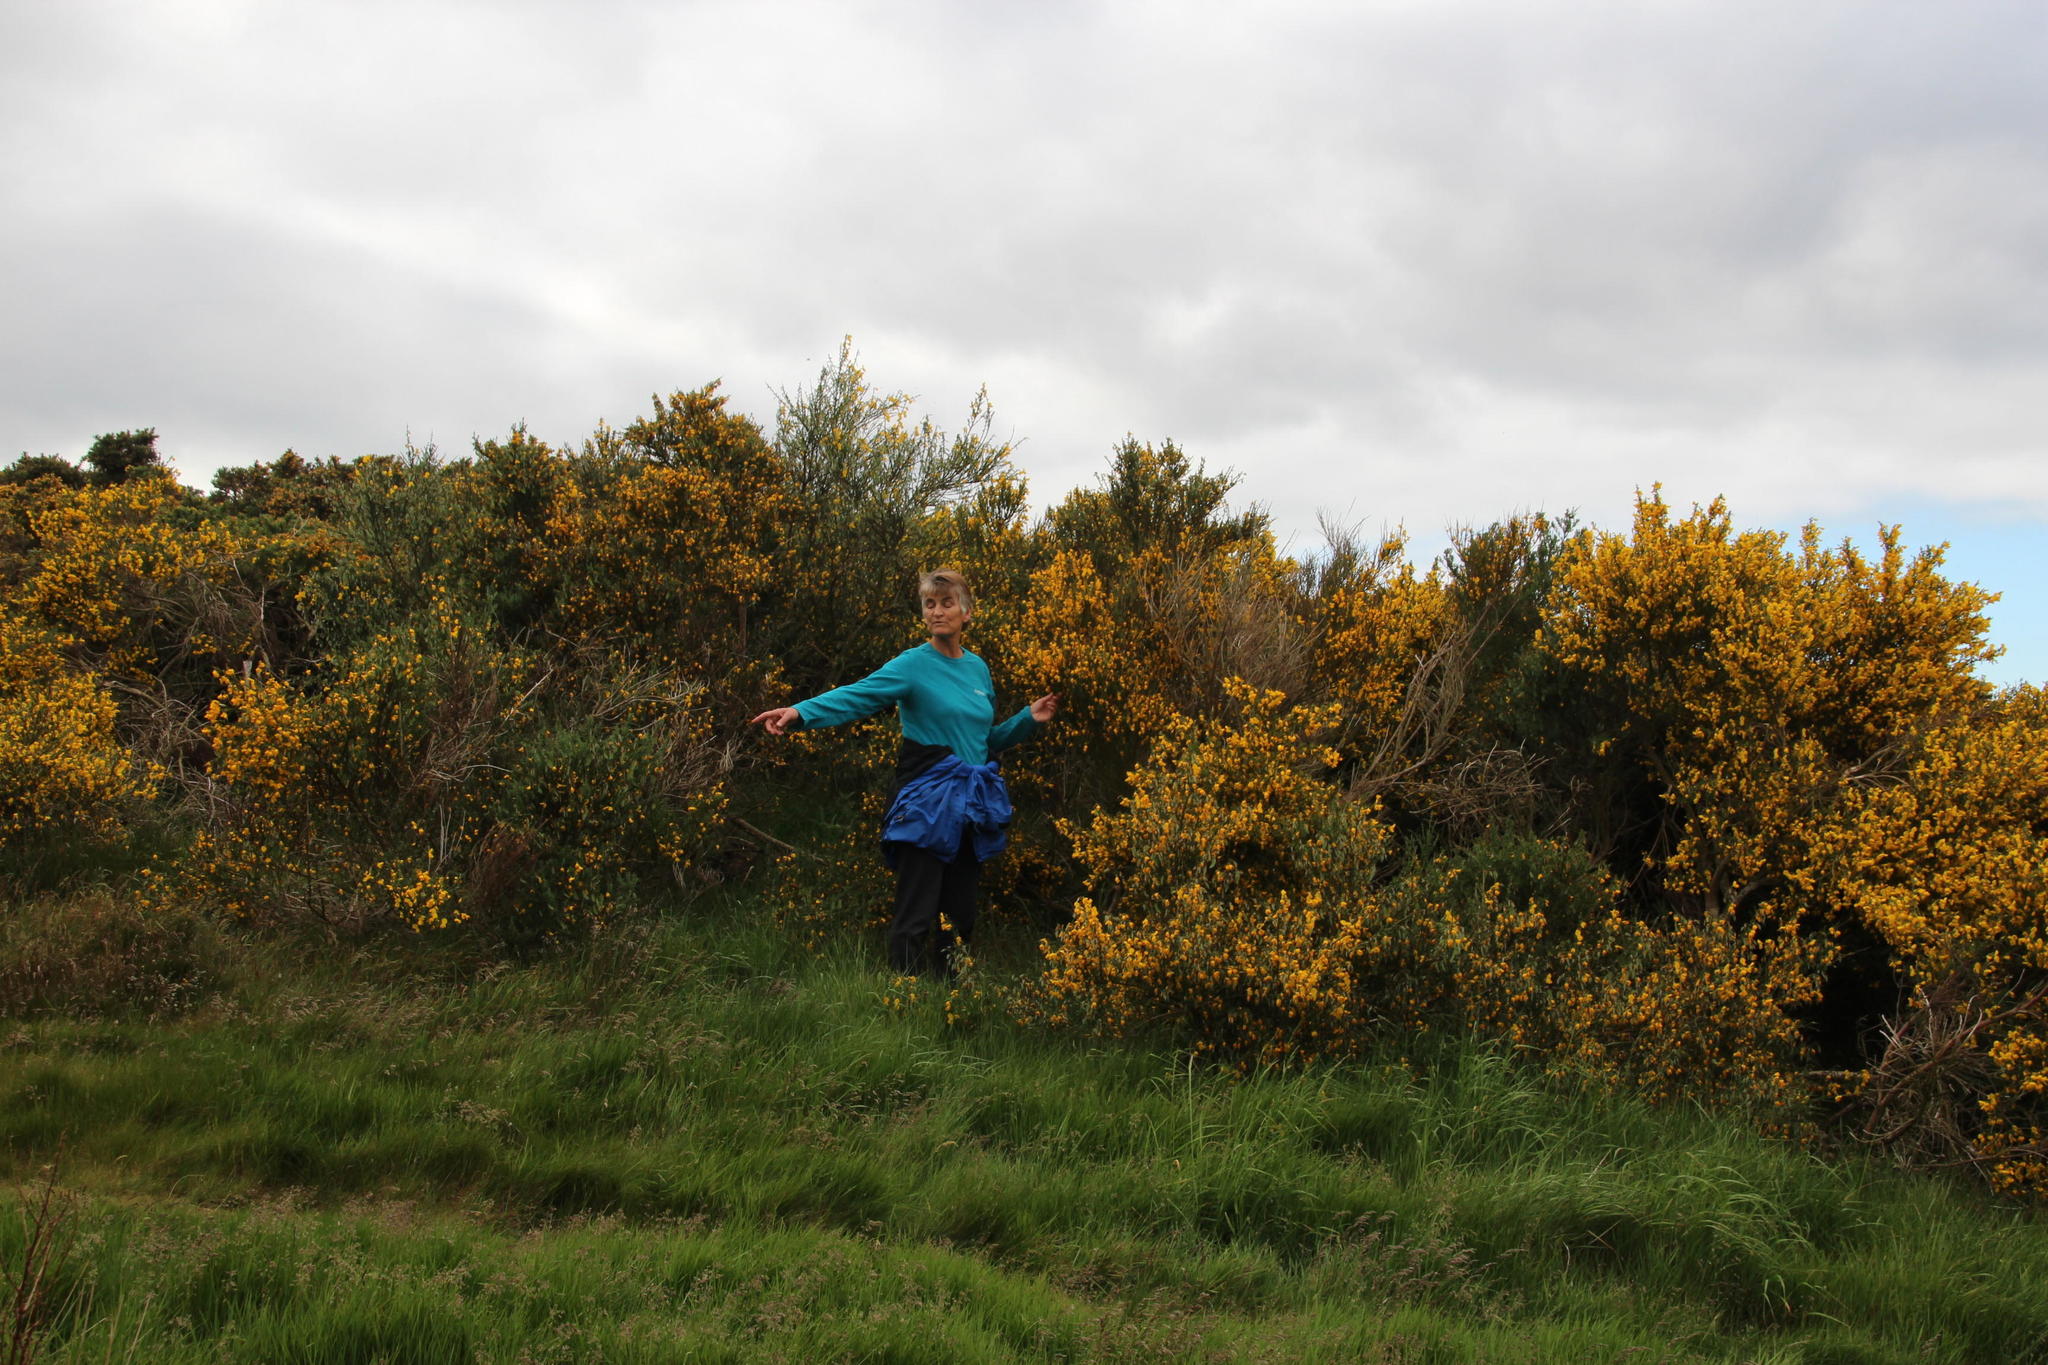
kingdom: Plantae
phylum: Tracheophyta
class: Magnoliopsida
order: Fabales
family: Fabaceae
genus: Cytisus
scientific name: Cytisus scoparius
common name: Scotch broom
